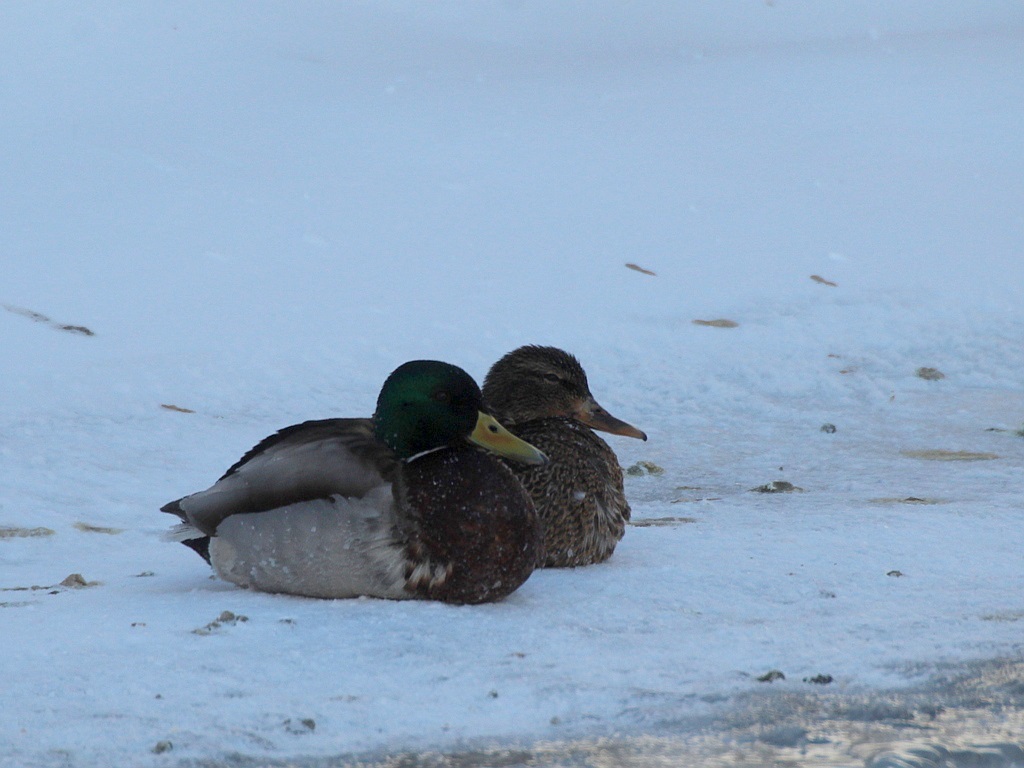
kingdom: Animalia
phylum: Chordata
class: Aves
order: Anseriformes
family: Anatidae
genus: Anas
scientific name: Anas platyrhynchos
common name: Mallard
